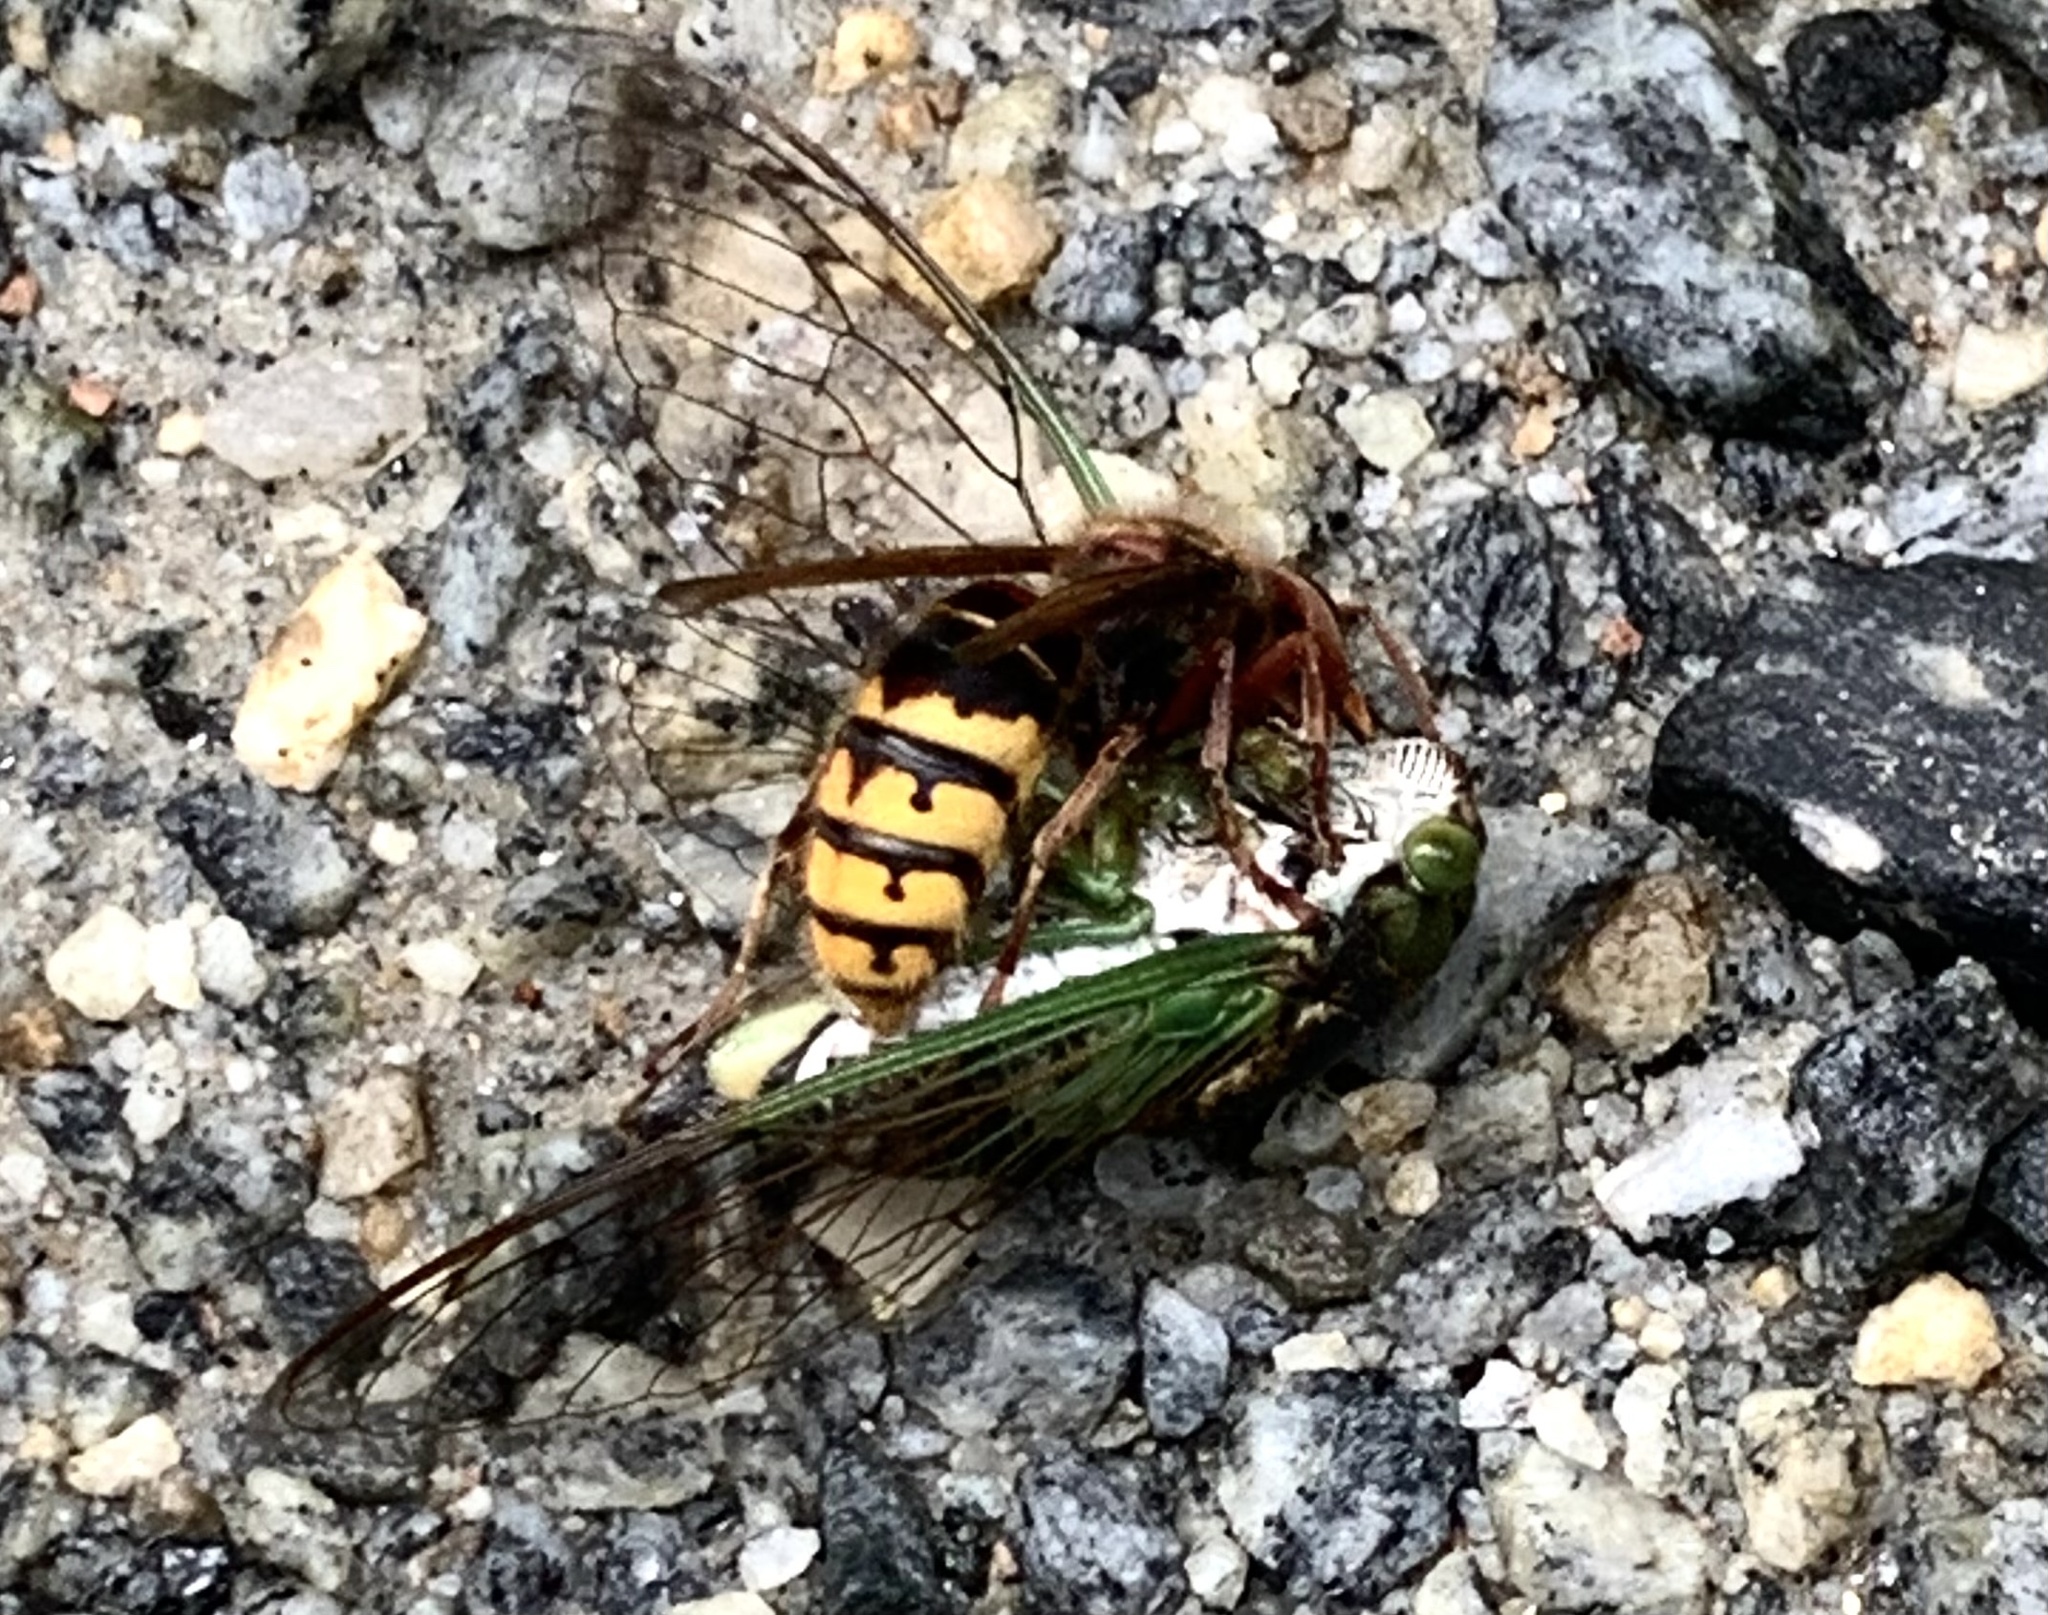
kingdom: Animalia
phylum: Arthropoda
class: Insecta
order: Hymenoptera
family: Vespidae
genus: Vespa
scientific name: Vespa crabro
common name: Hornet
